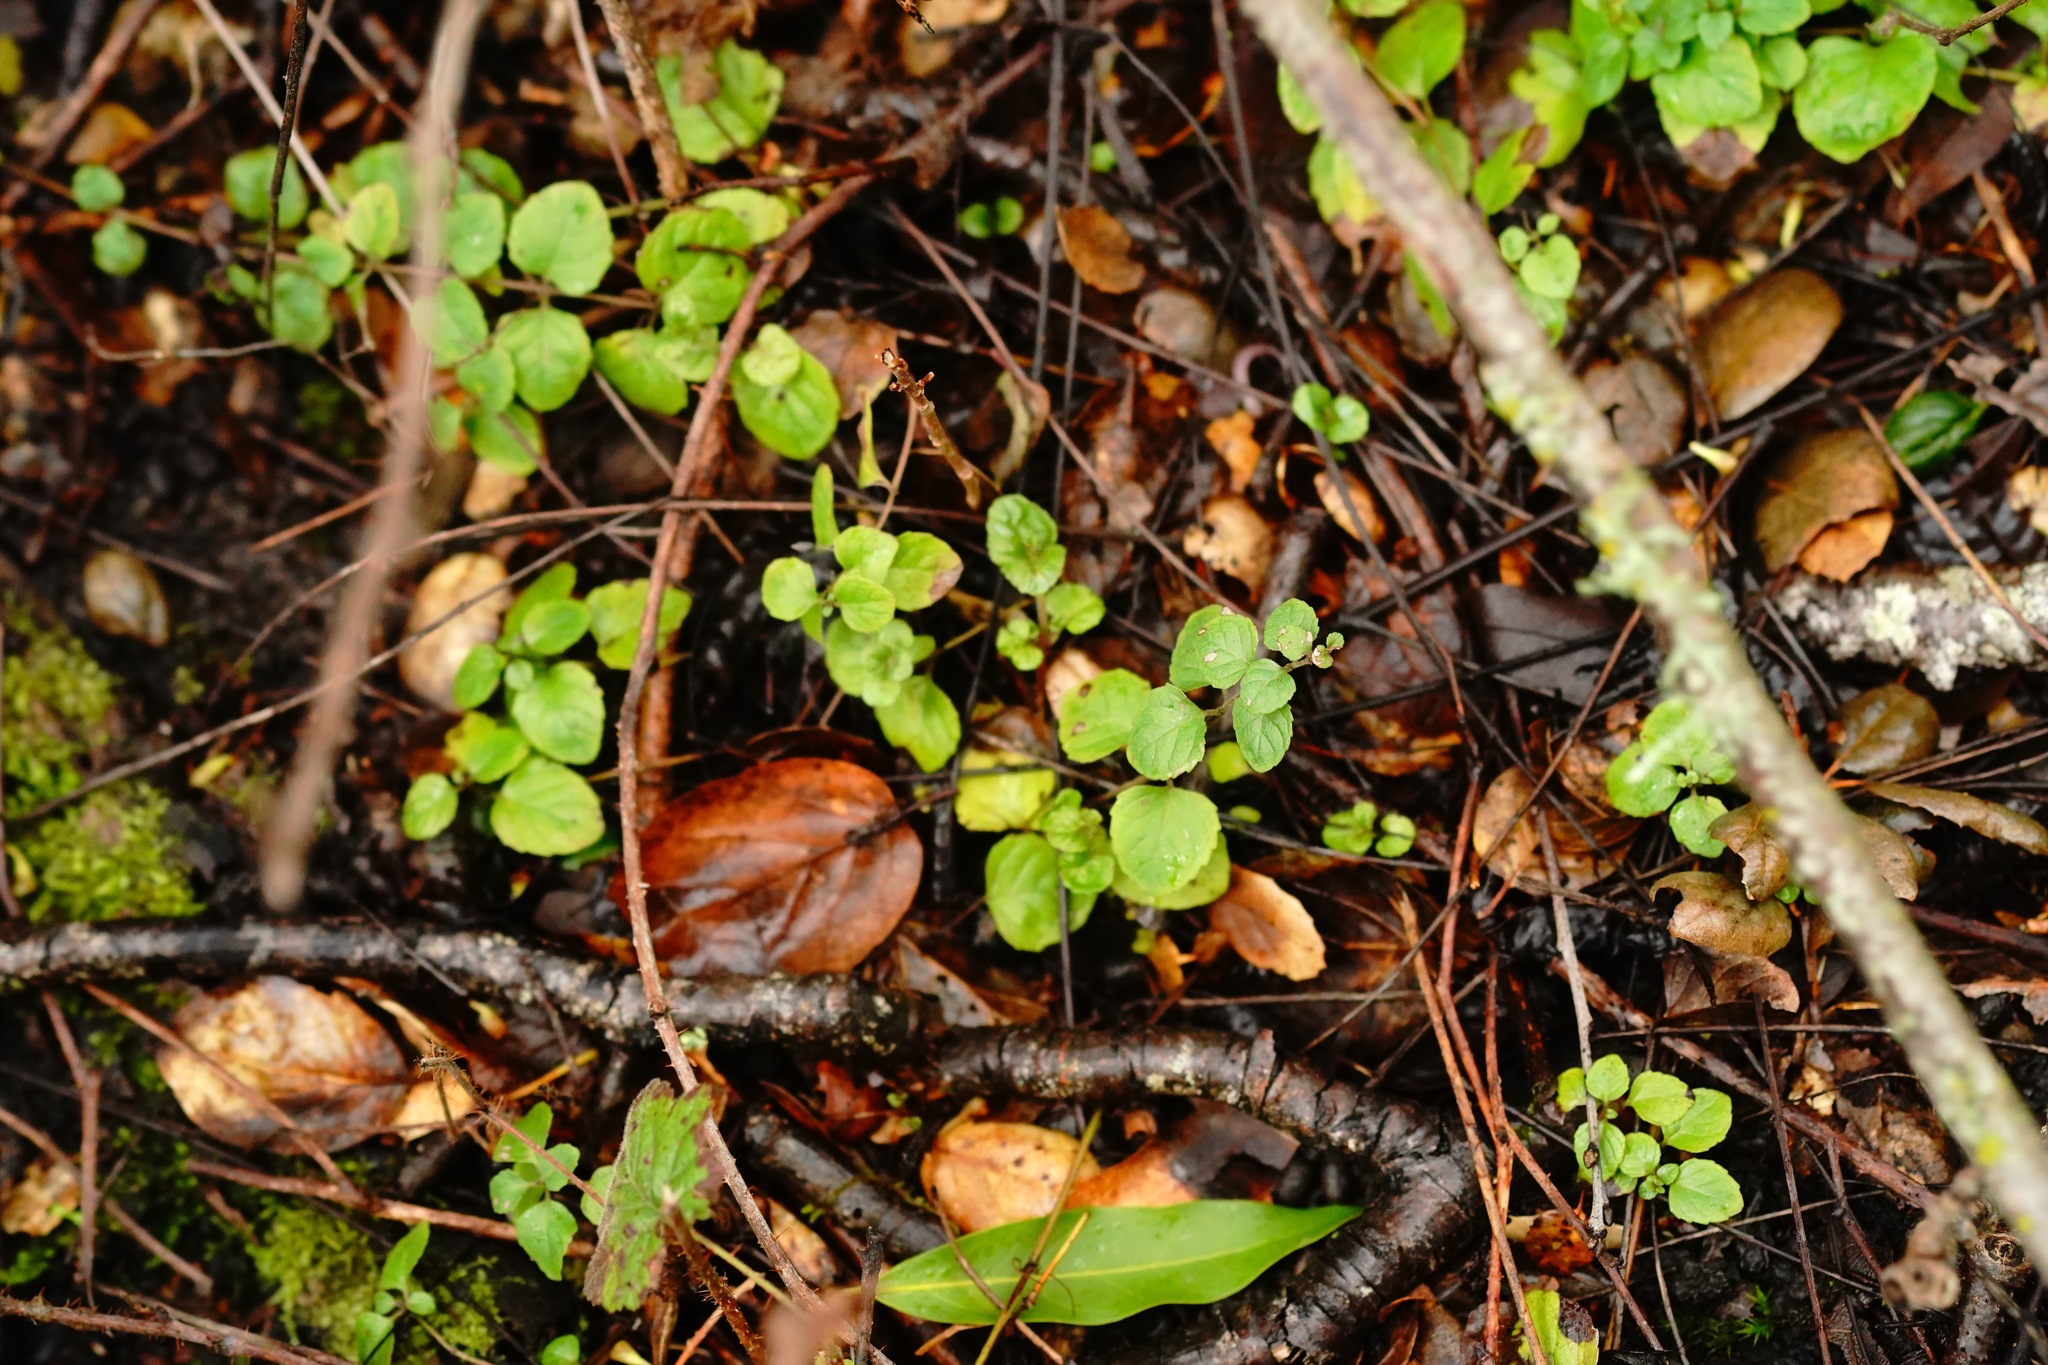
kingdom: Plantae
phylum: Tracheophyta
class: Magnoliopsida
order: Lamiales
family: Lamiaceae
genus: Micromeria
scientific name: Micromeria douglasii
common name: Yerba buena
